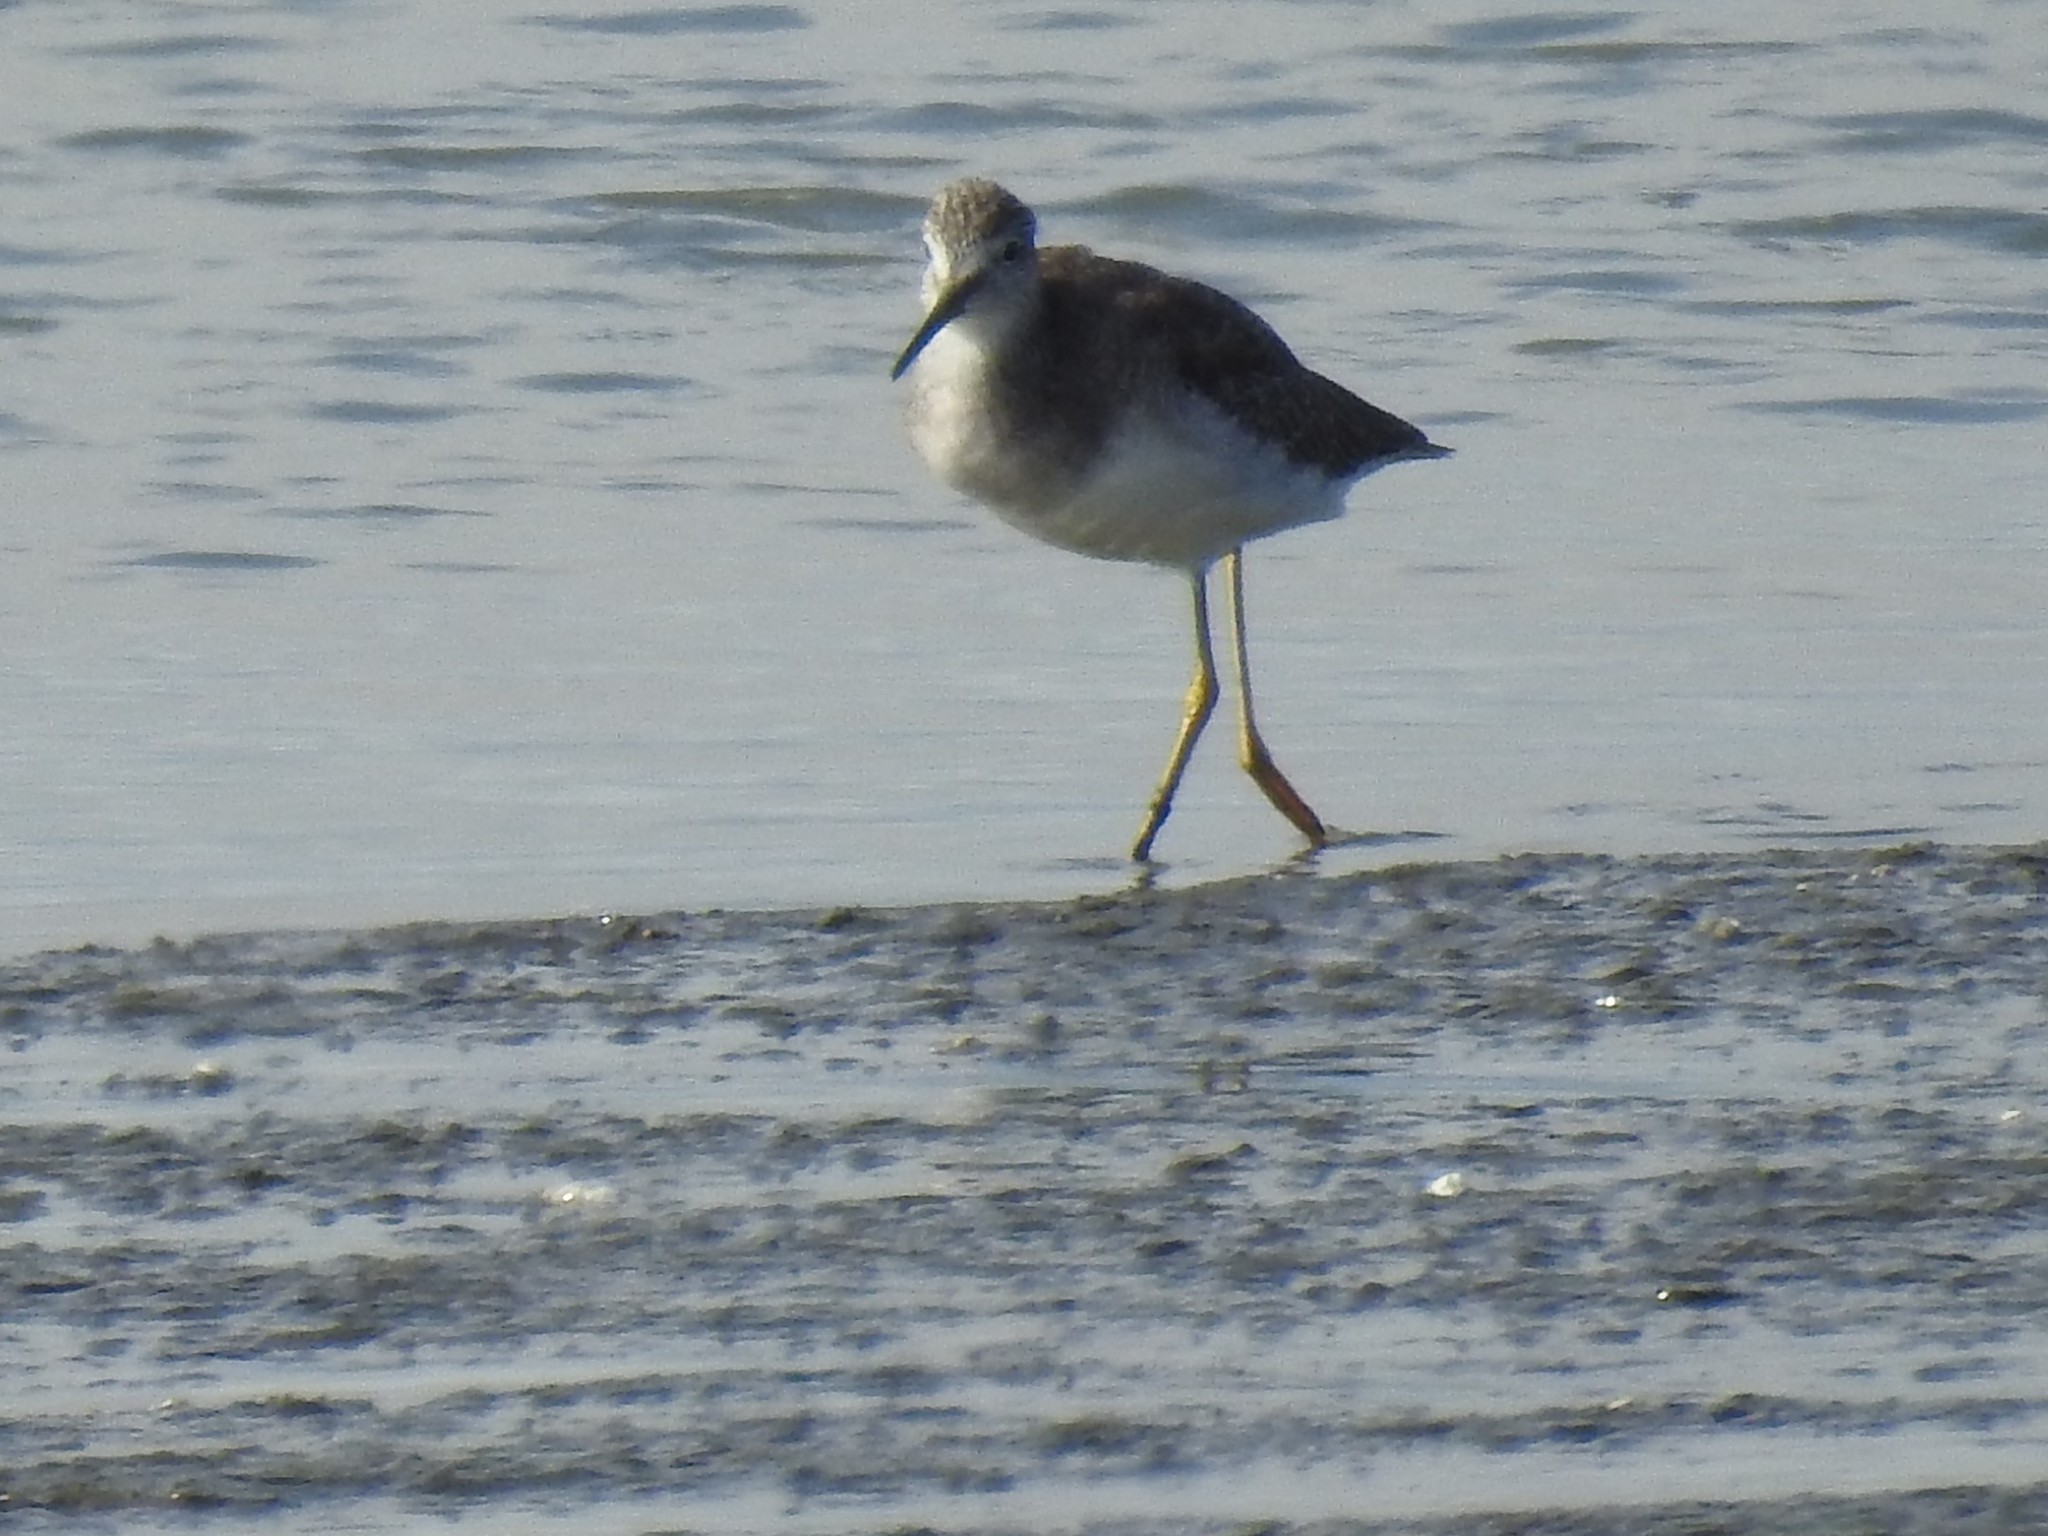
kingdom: Animalia
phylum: Chordata
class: Aves
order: Charadriiformes
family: Scolopacidae
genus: Tringa
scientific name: Tringa melanoleuca
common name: Greater yellowlegs
